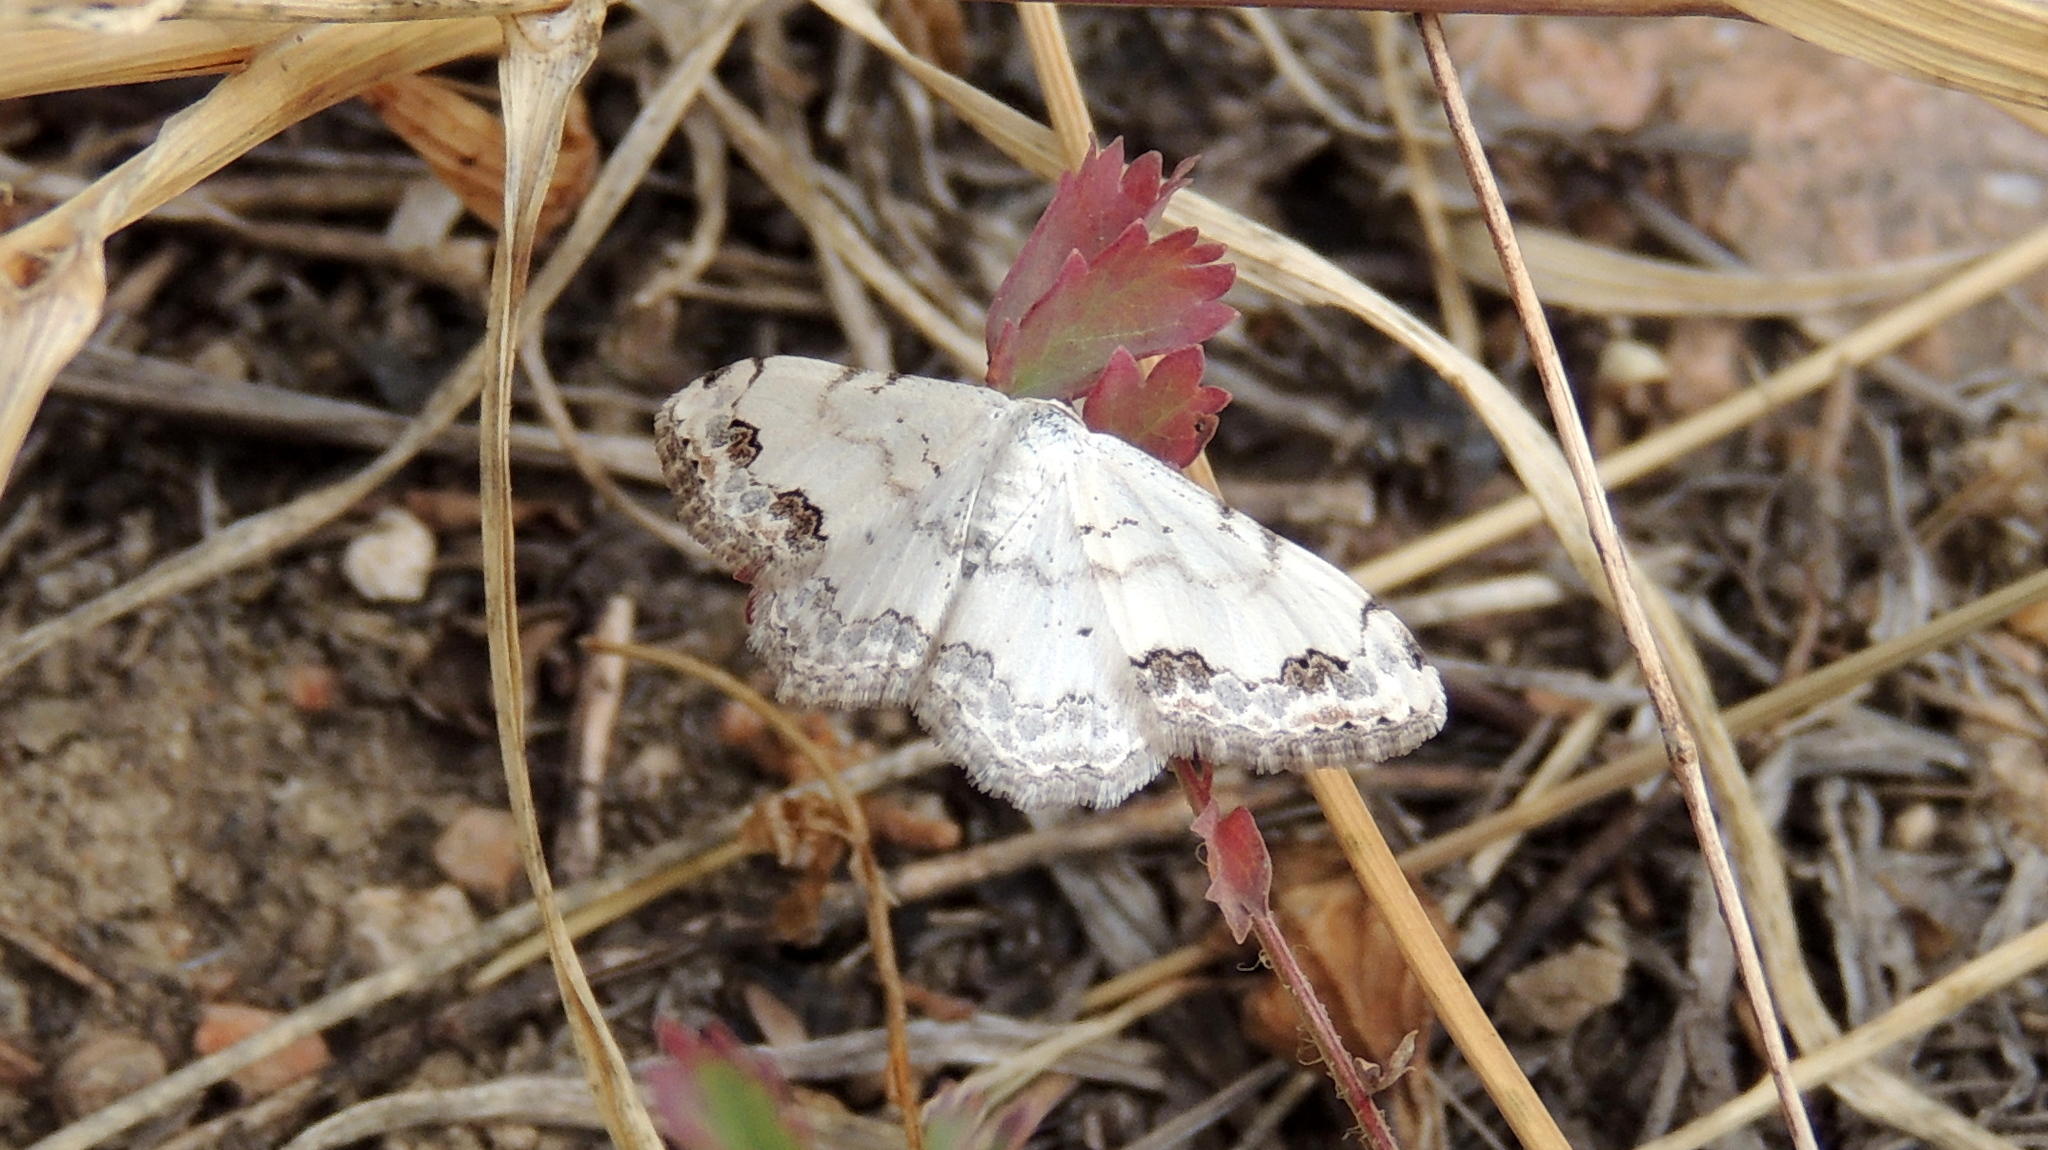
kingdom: Animalia
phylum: Arthropoda
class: Insecta
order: Lepidoptera
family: Geometridae
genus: Scopula
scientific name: Scopula decorata
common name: Middle lace border
